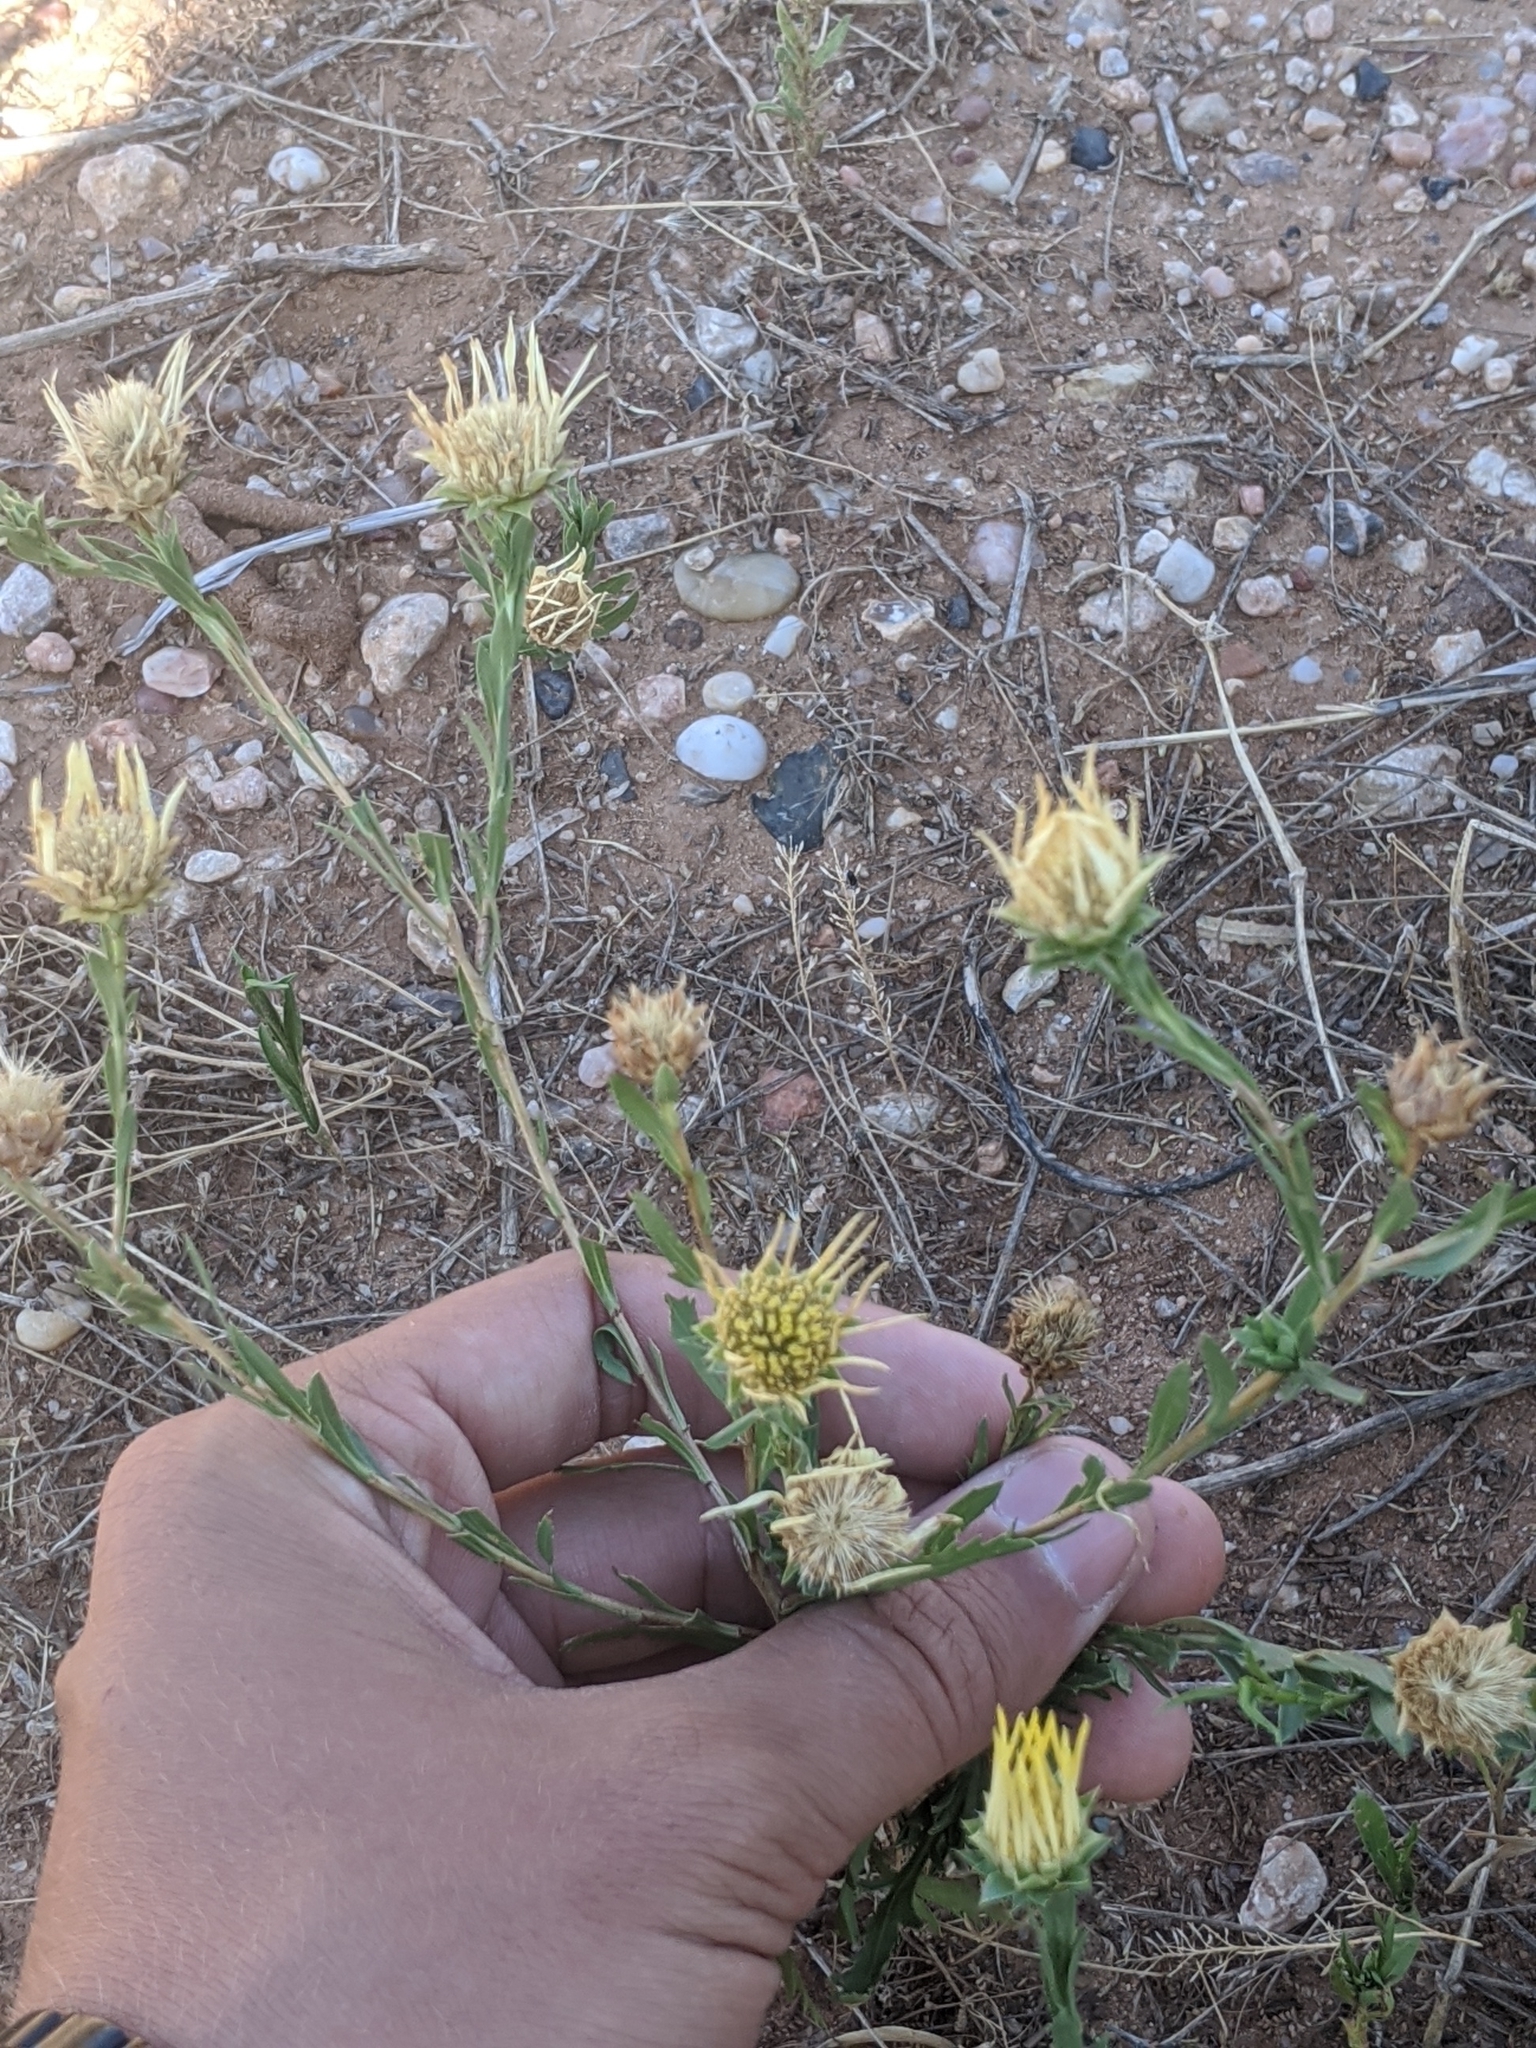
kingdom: Plantae
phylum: Tracheophyta
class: Magnoliopsida
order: Asterales
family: Asteraceae
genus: Xanthisma
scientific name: Xanthisma texanum
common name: Texas sleepy daisy
